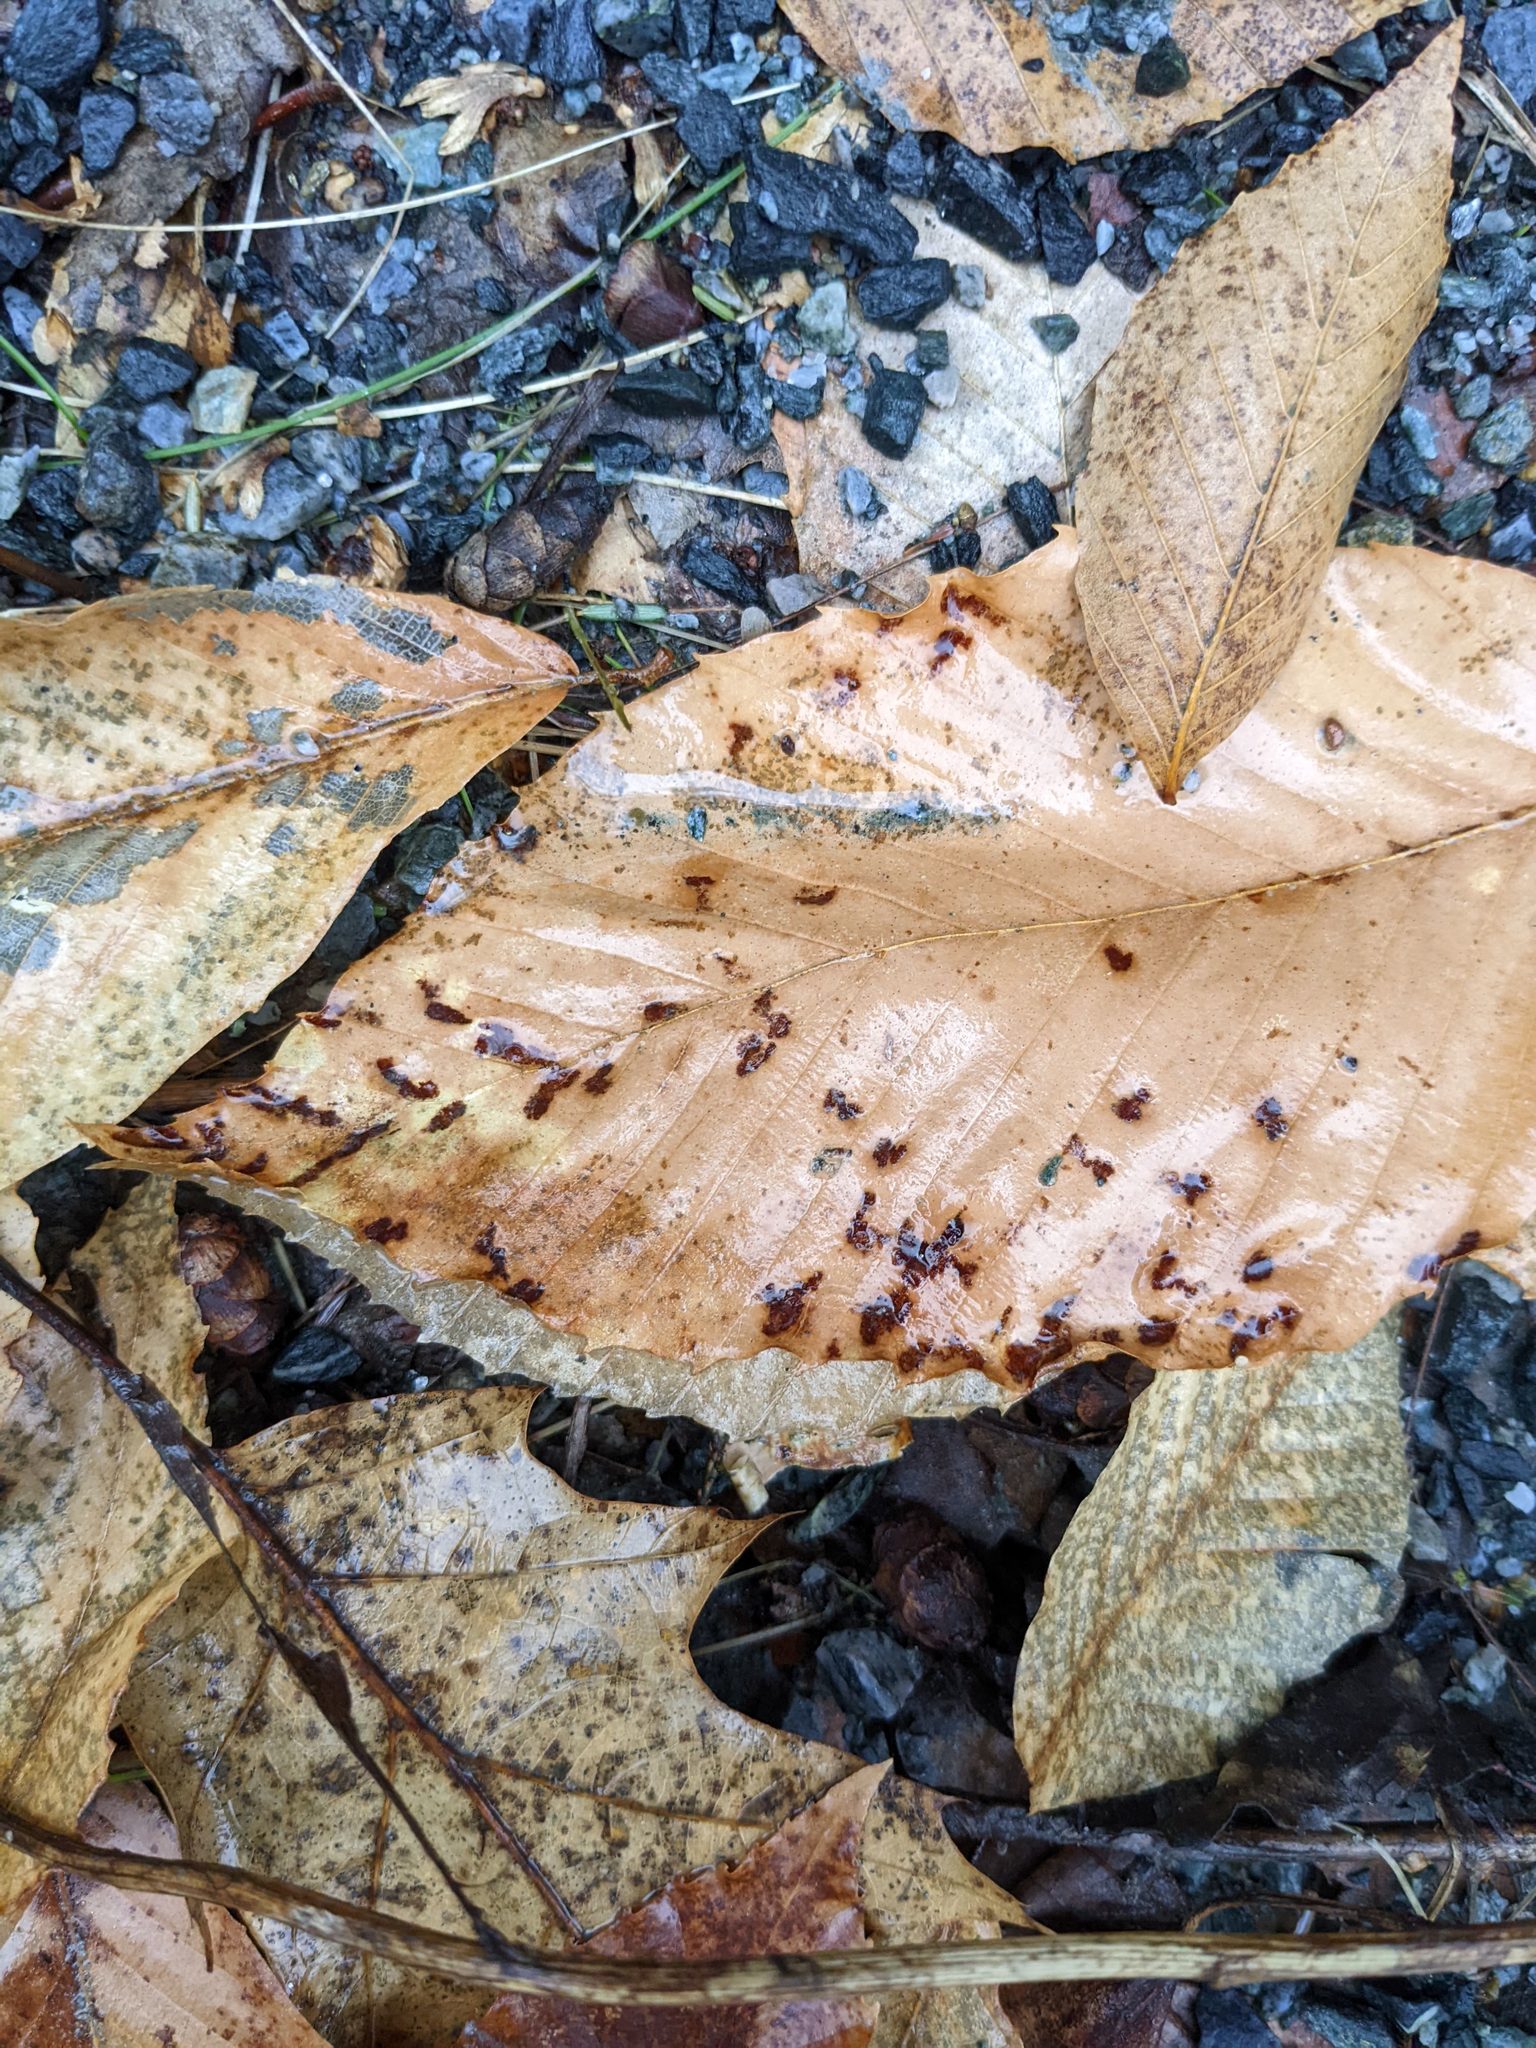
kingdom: Plantae
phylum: Tracheophyta
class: Magnoliopsida
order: Fagales
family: Fagaceae
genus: Fagus
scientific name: Fagus grandifolia
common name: American beech
